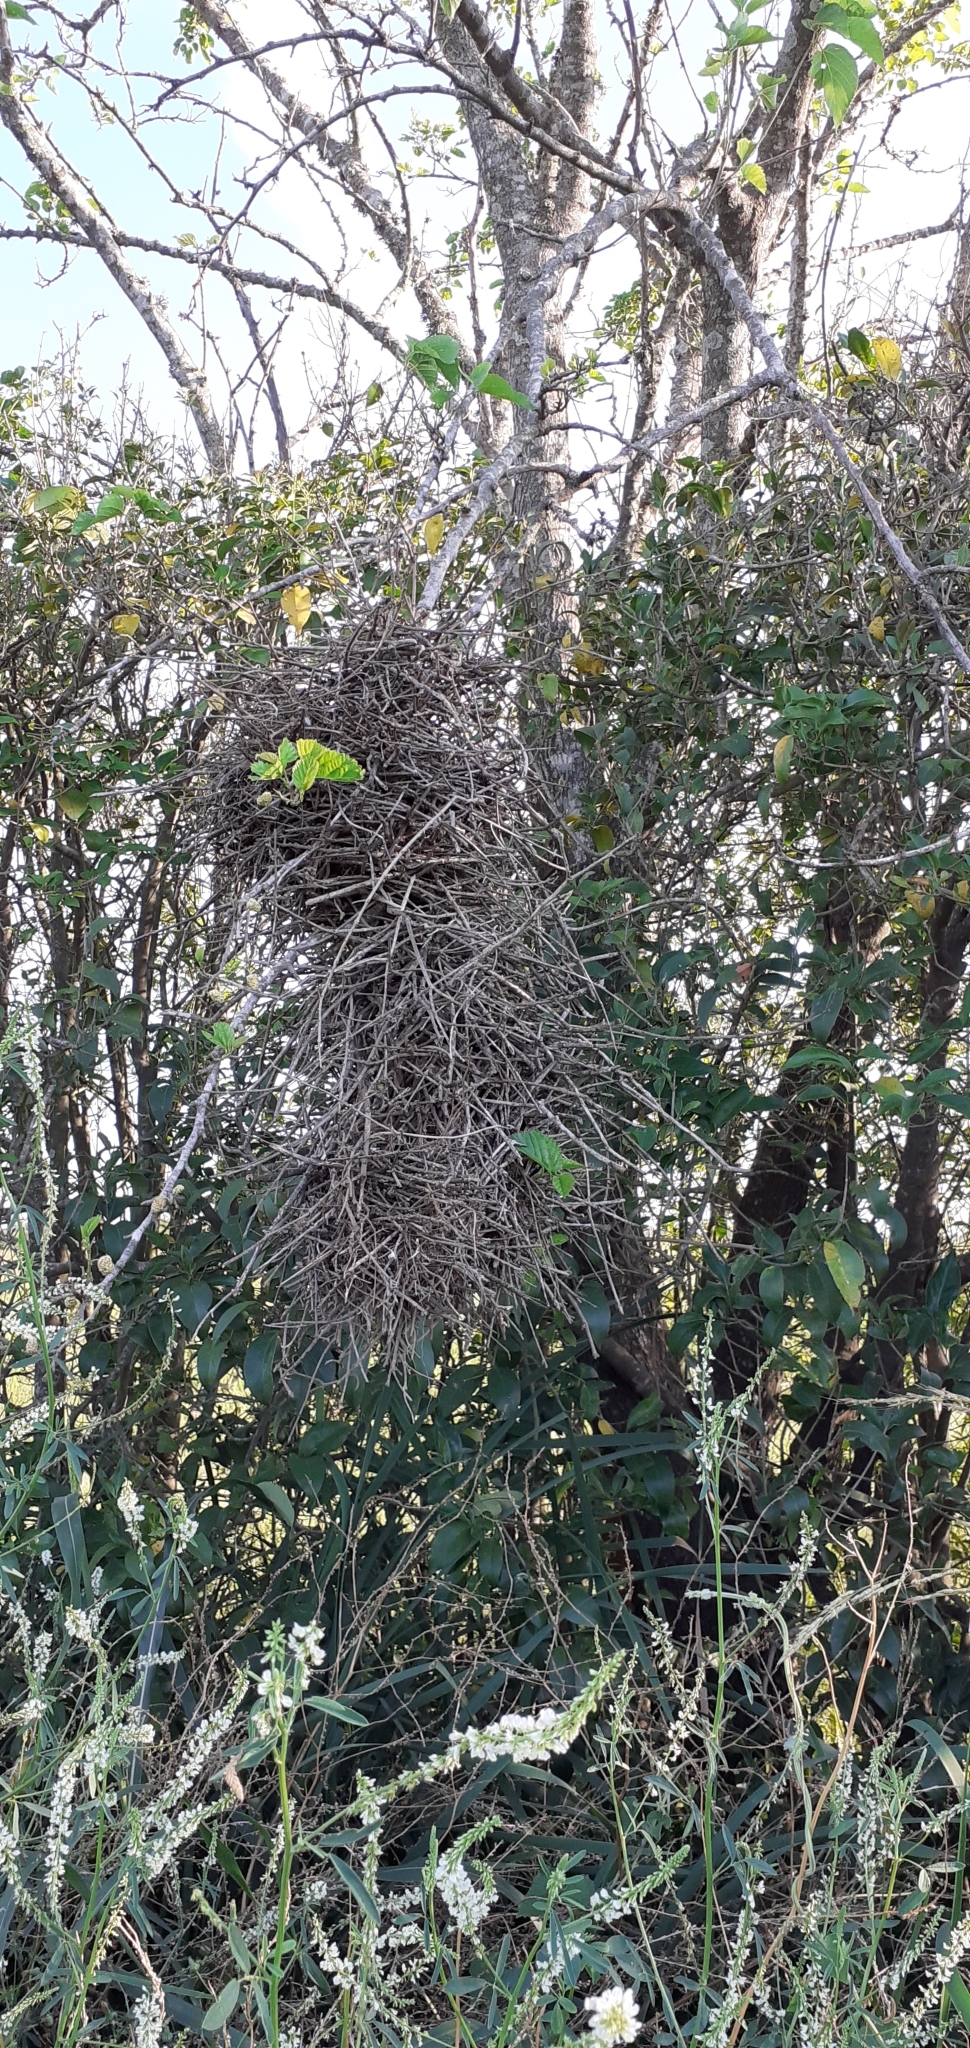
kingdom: Animalia
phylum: Chordata
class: Aves
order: Passeriformes
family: Furnariidae
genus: Phacellodomus
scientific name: Phacellodomus ruber
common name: Greater thornbird
